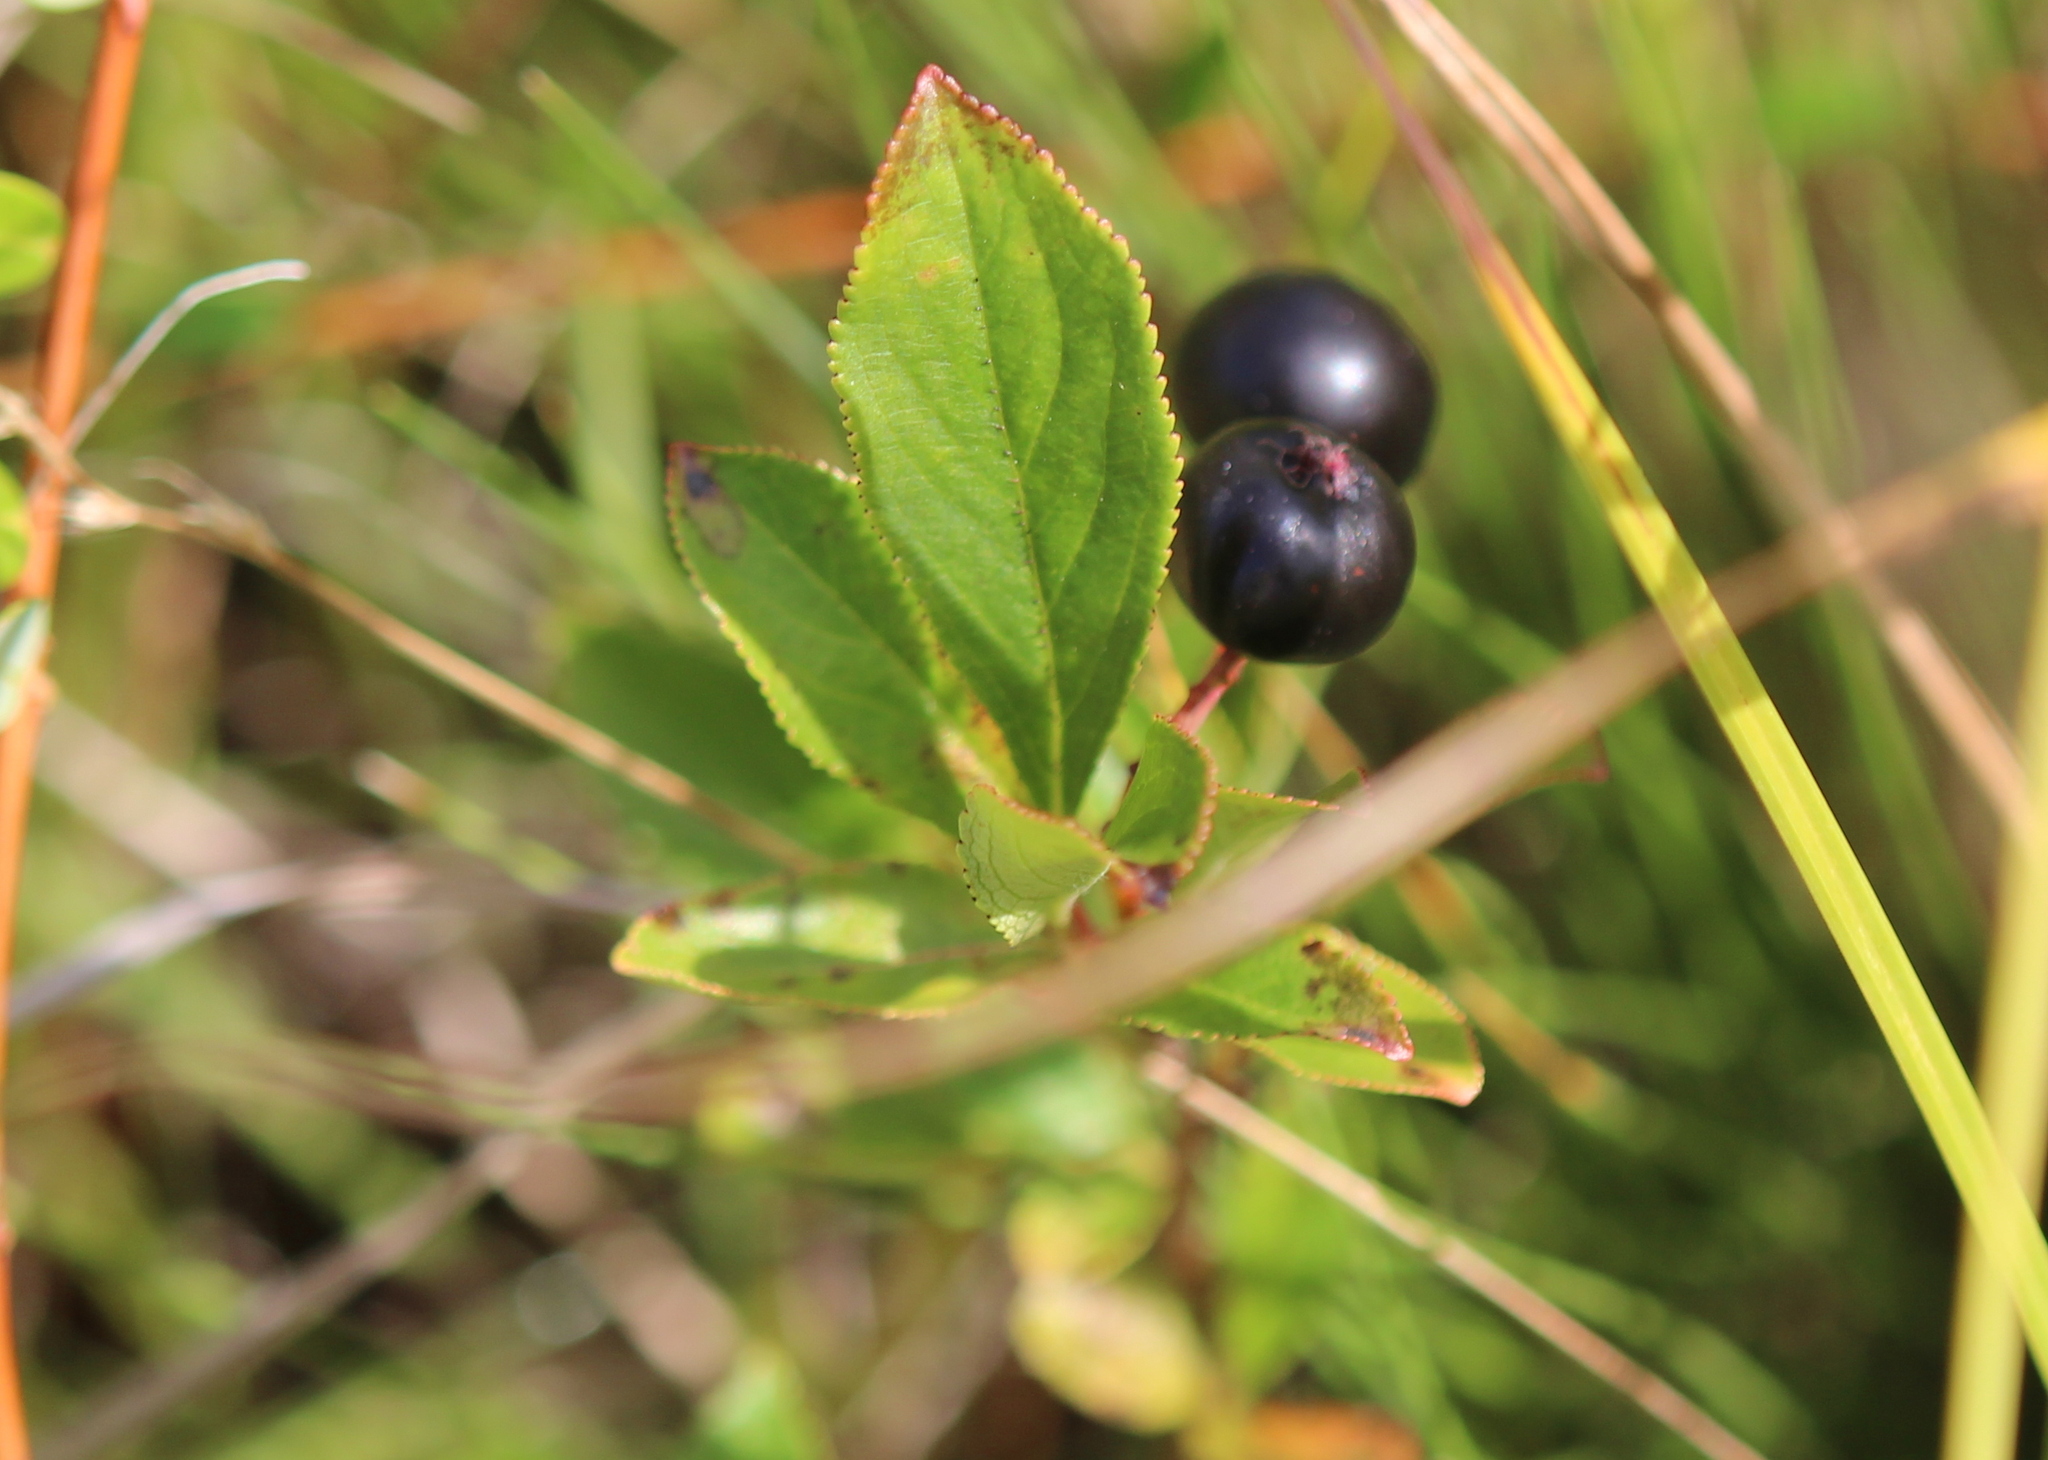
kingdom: Plantae
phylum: Tracheophyta
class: Magnoliopsida
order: Rosales
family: Rosaceae
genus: Aronia
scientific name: Aronia melanocarpa
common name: Black chokeberry
